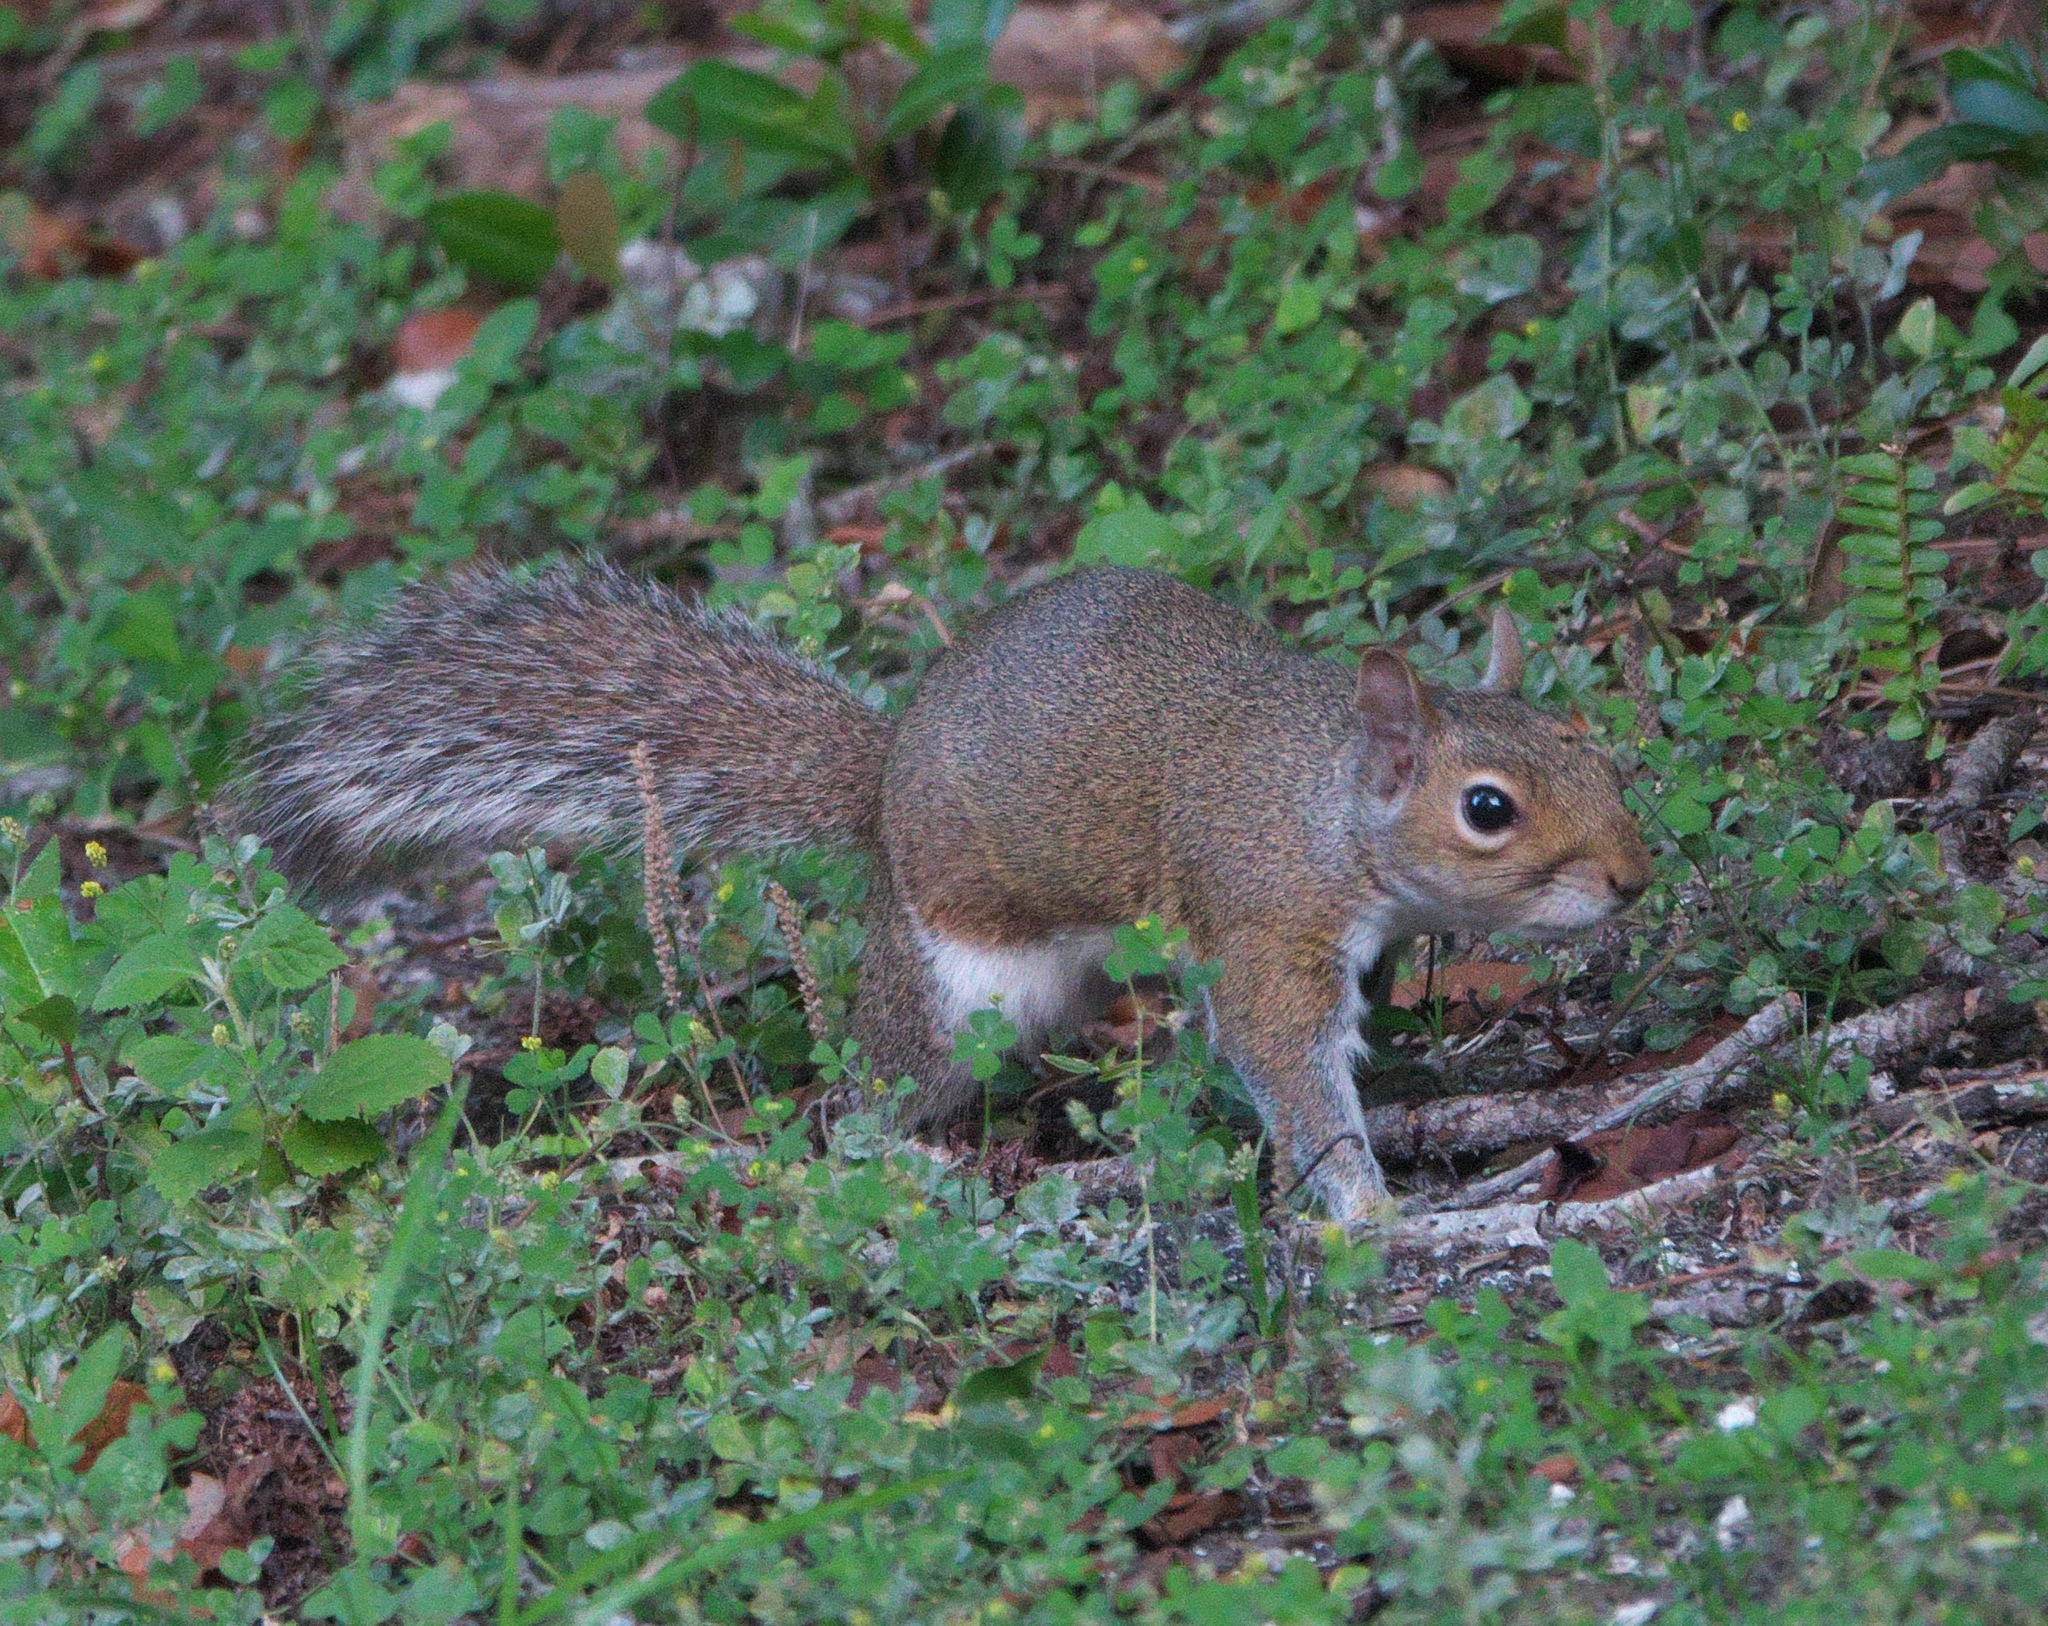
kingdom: Animalia
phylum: Chordata
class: Mammalia
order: Rodentia
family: Sciuridae
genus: Sciurus
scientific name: Sciurus carolinensis
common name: Eastern gray squirrel
